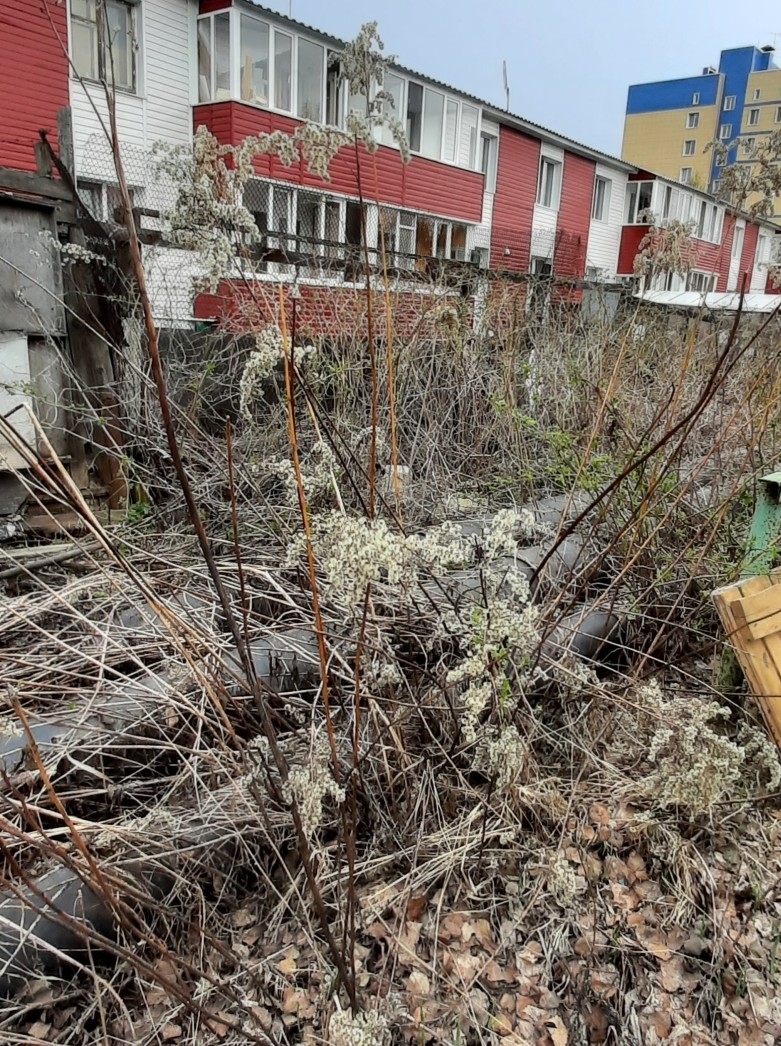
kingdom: Plantae
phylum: Tracheophyta
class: Magnoliopsida
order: Asterales
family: Asteraceae
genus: Solidago
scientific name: Solidago gigantea
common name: Giant goldenrod
